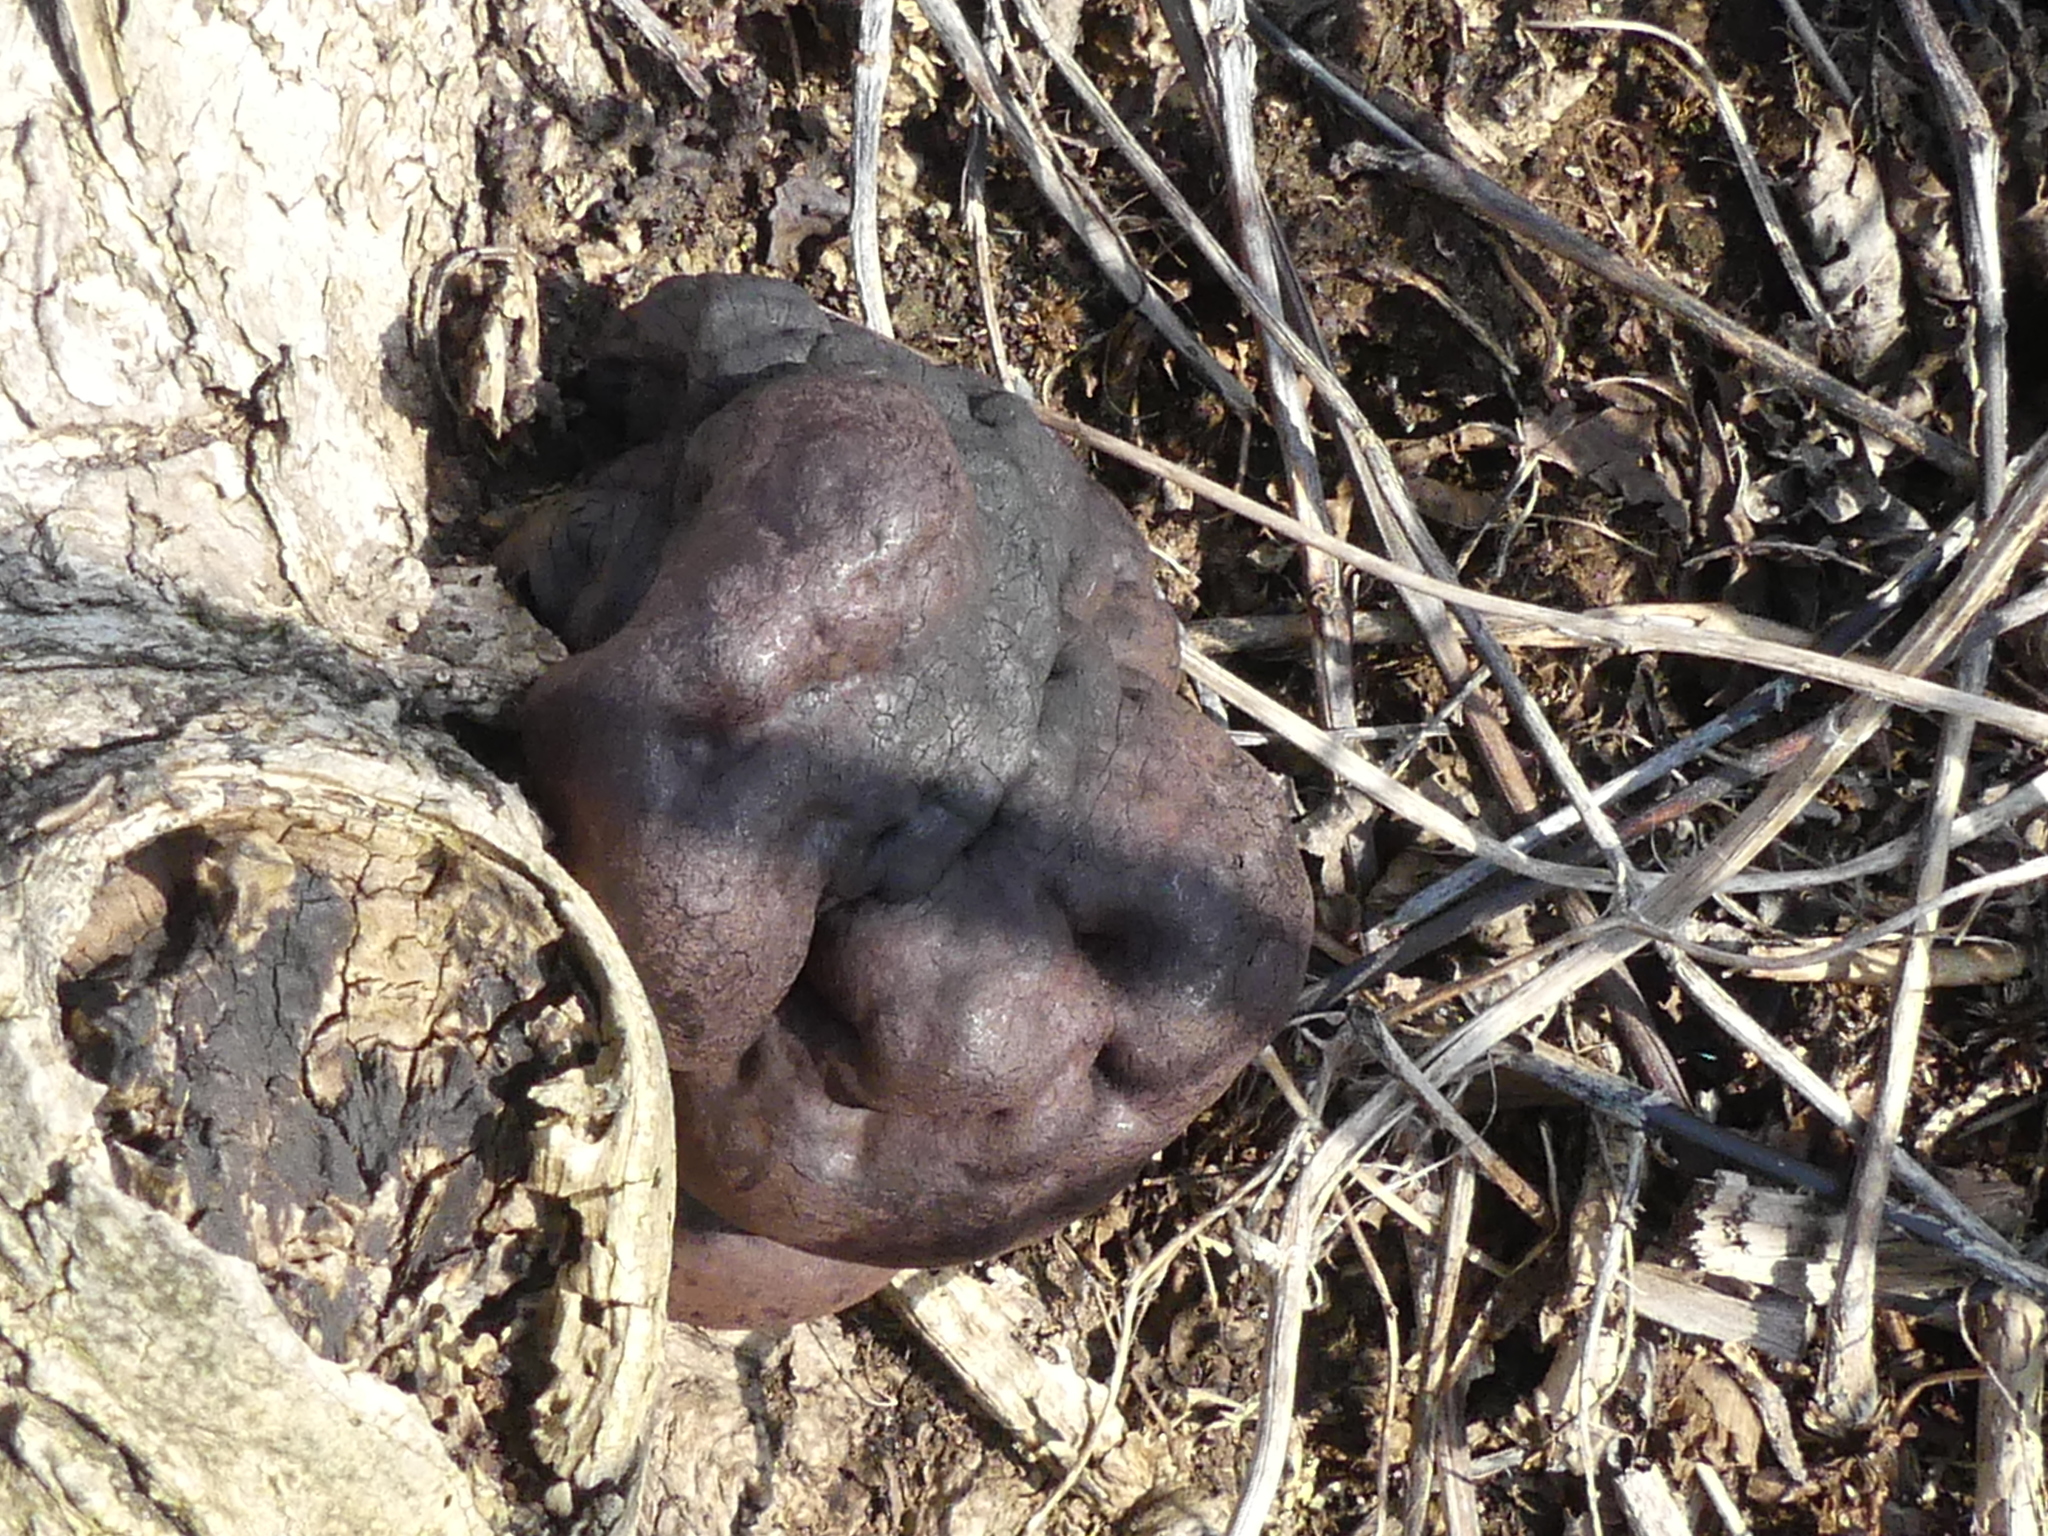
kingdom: Fungi
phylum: Ascomycota
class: Sordariomycetes
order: Xylariales
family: Hypoxylaceae
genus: Daldinia
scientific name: Daldinia concentrica
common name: Cramp balls
